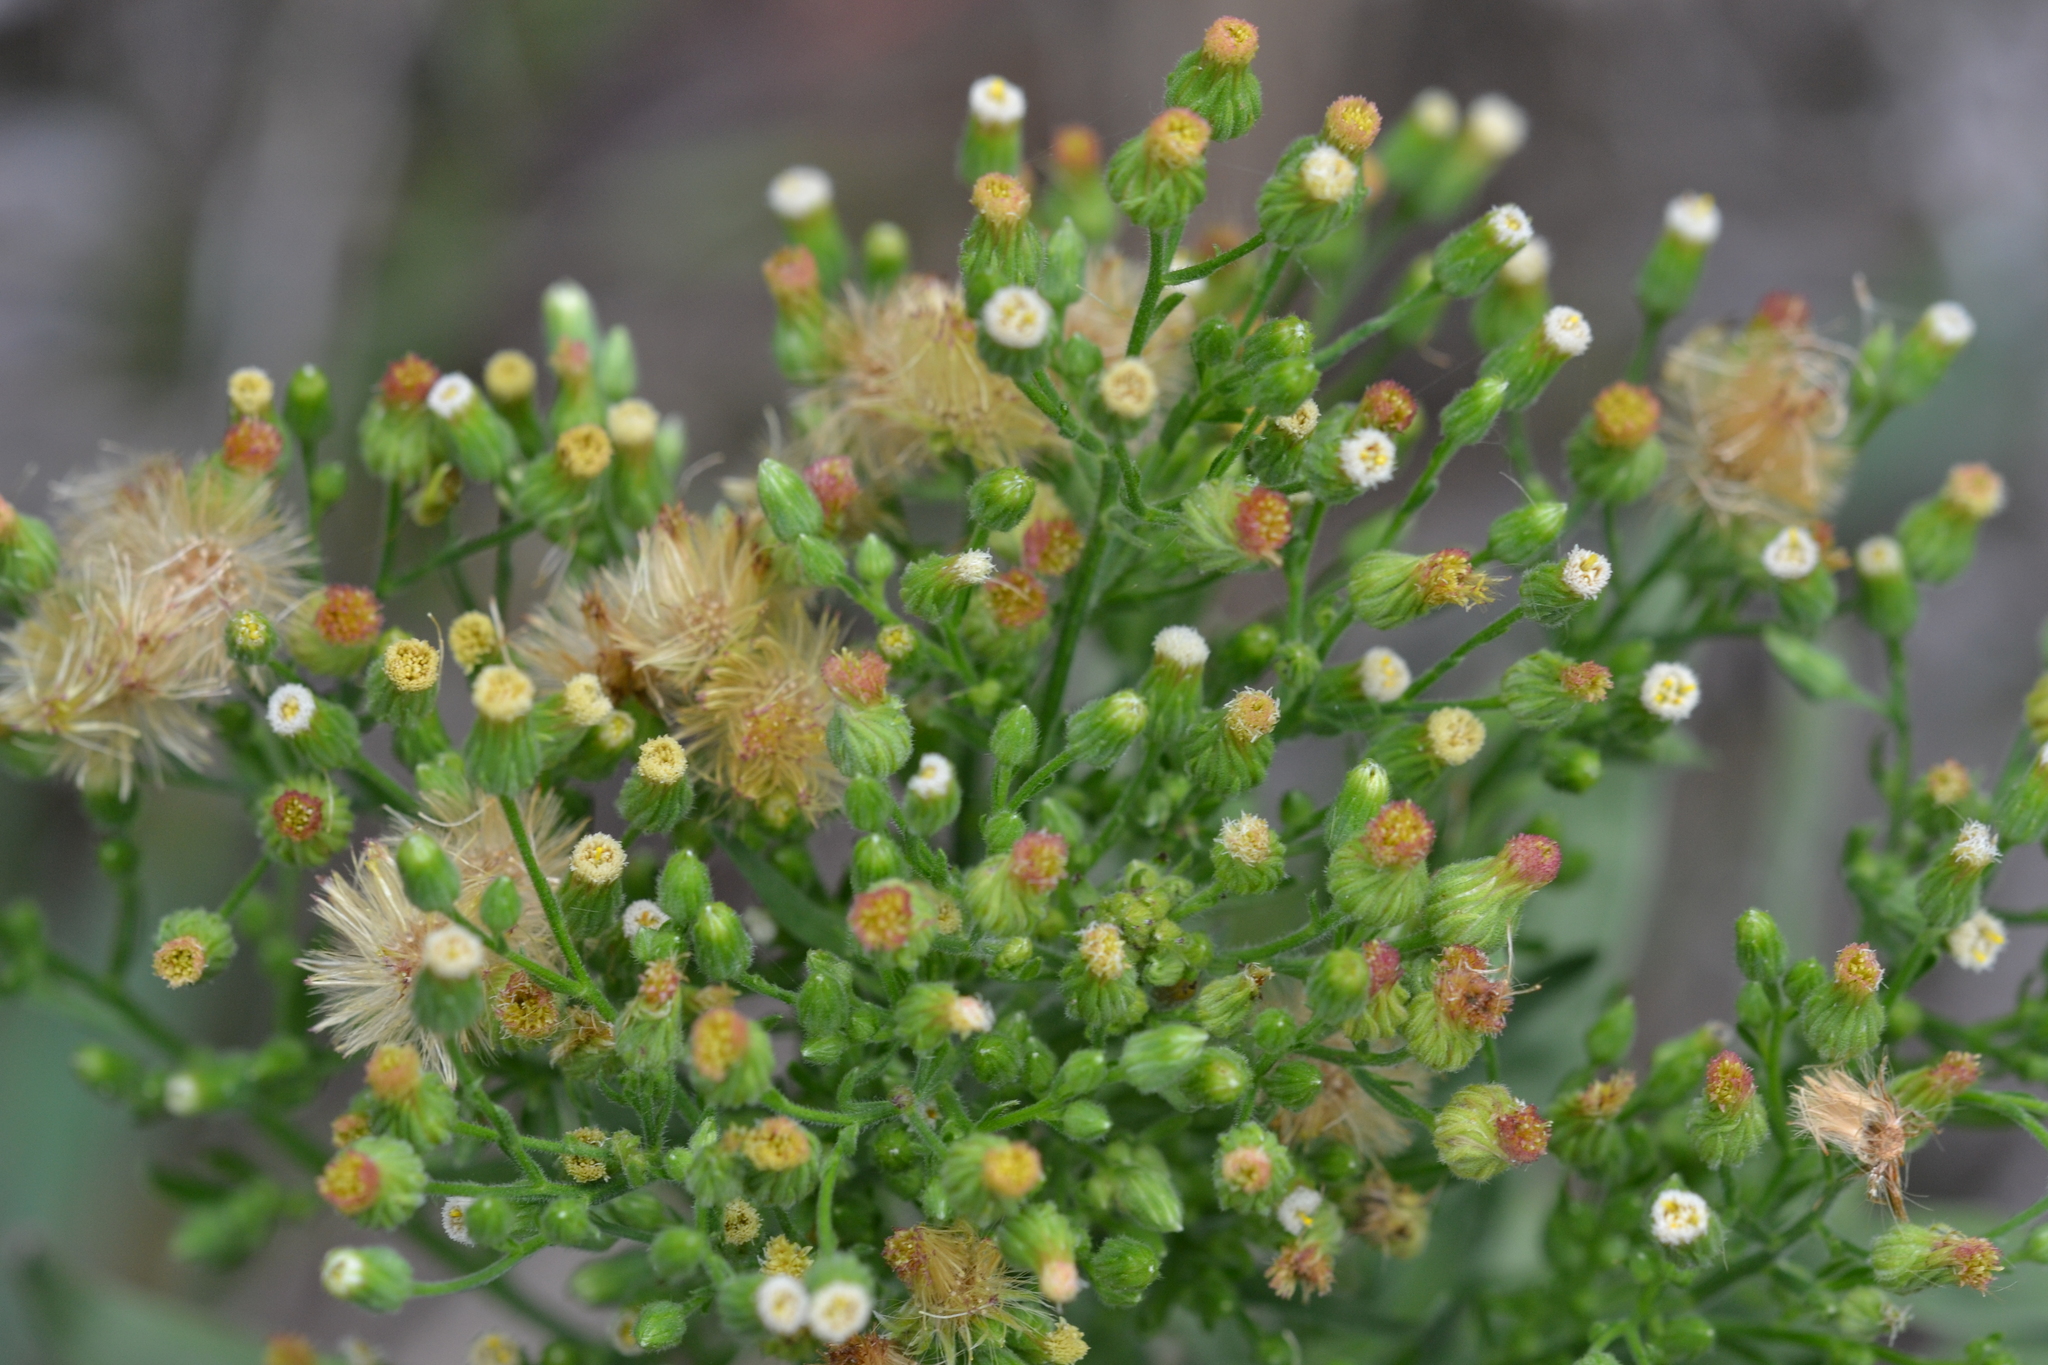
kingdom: Plantae
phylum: Tracheophyta
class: Magnoliopsida
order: Asterales
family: Asteraceae
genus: Erigeron
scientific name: Erigeron canadensis
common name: Canadian fleabane
